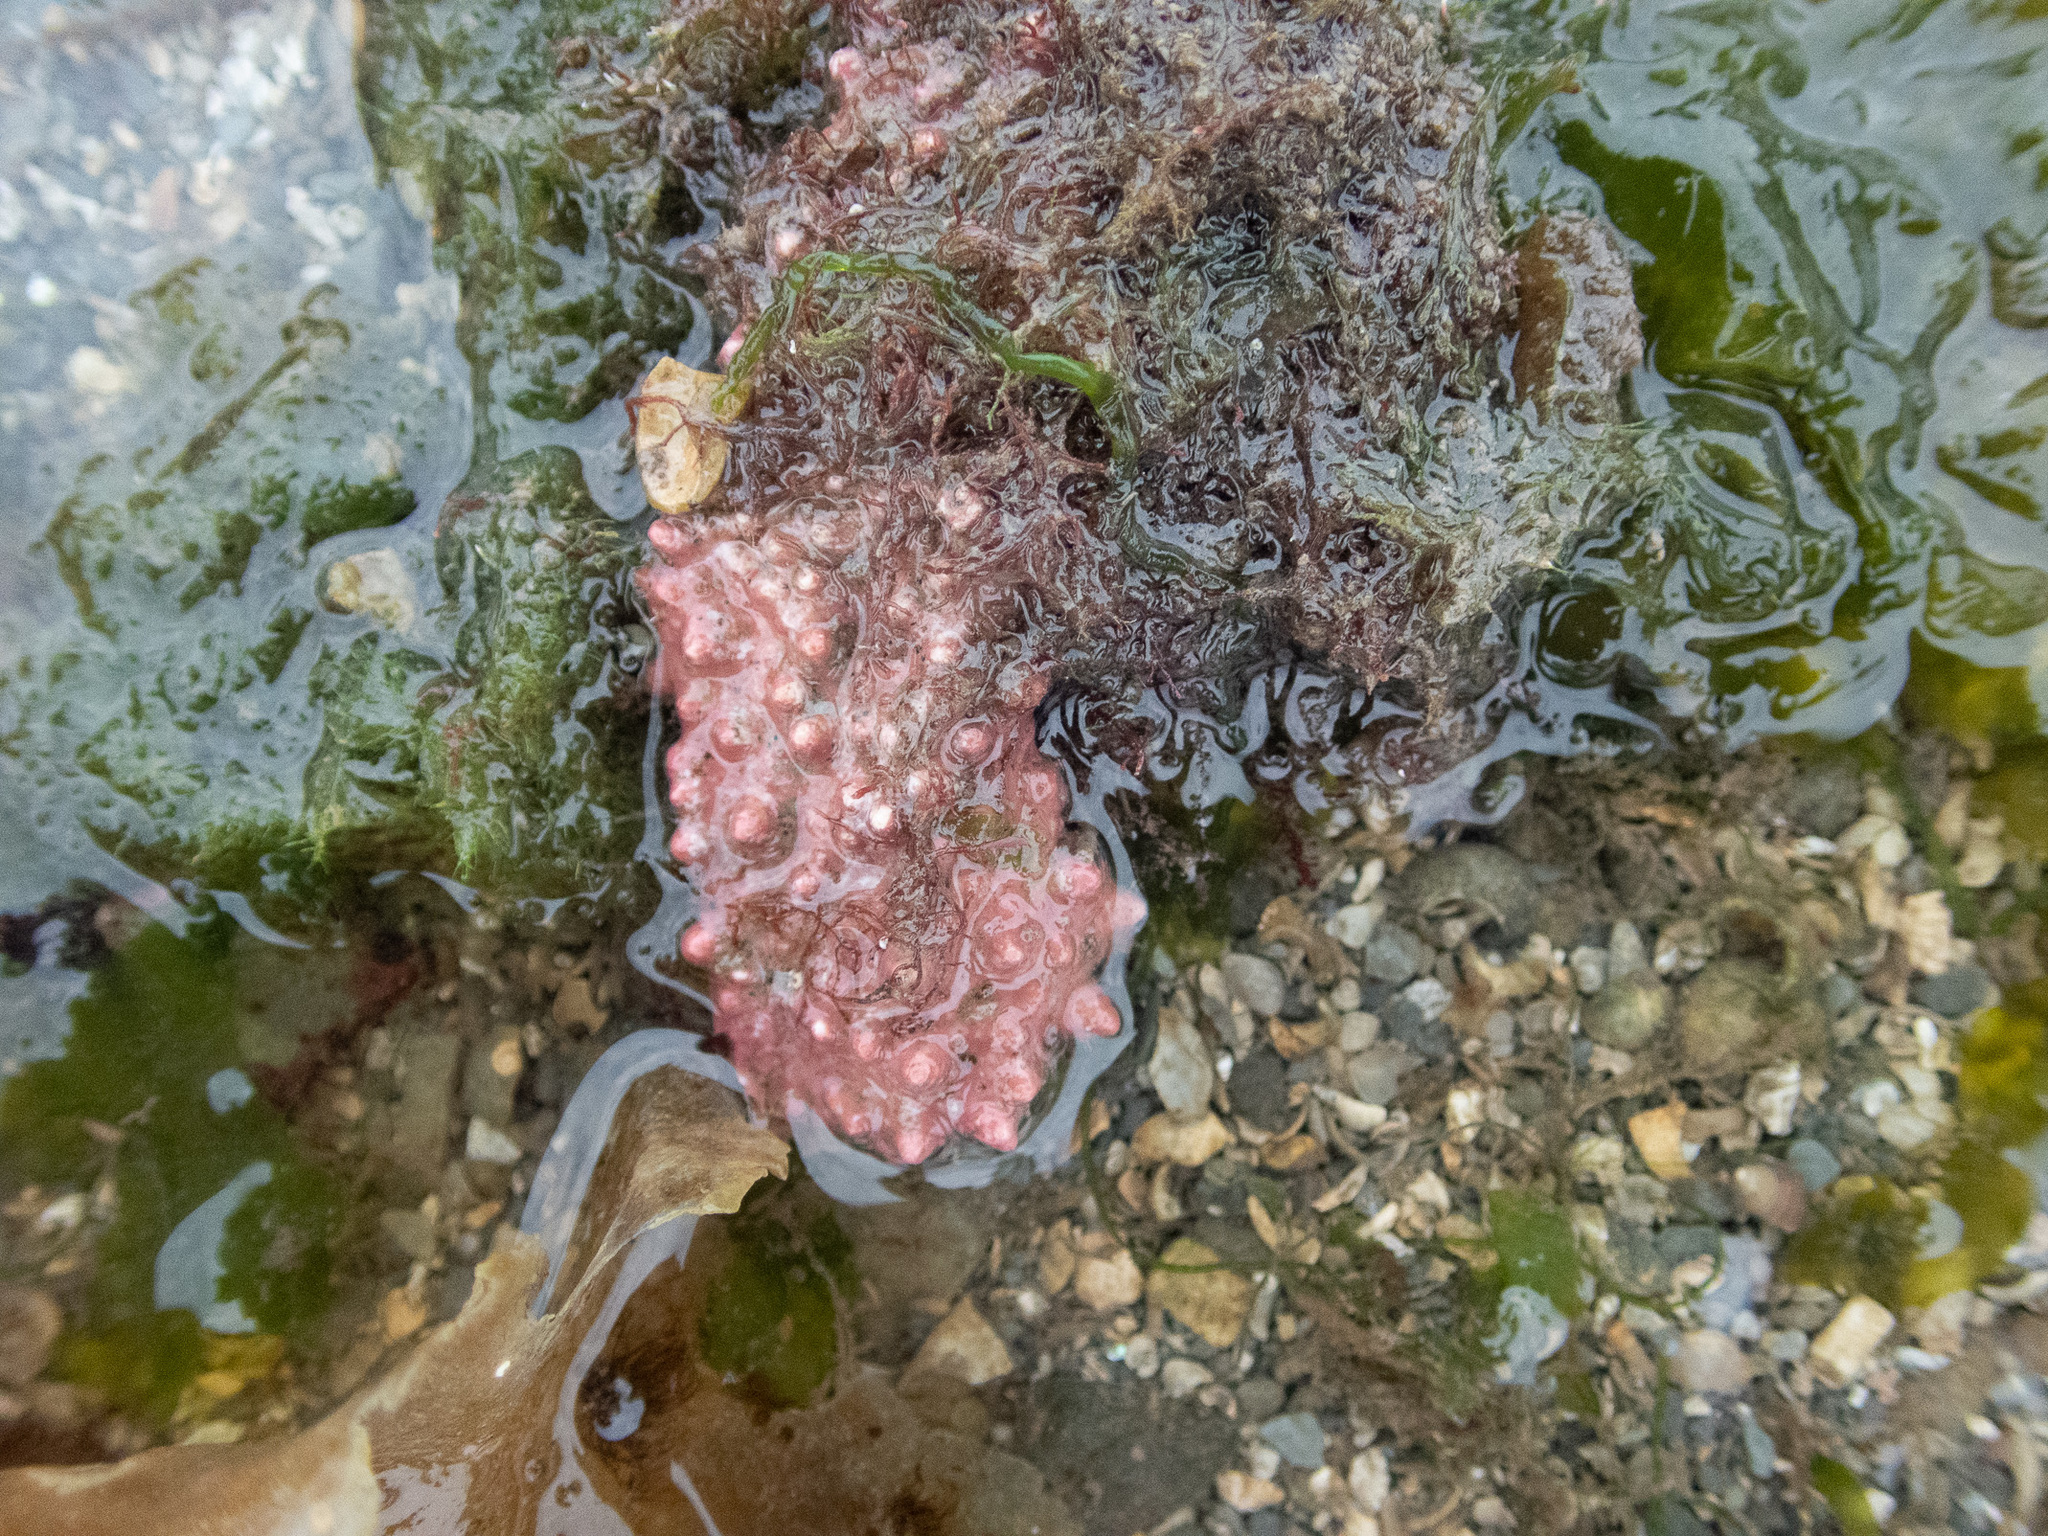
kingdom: Plantae
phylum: Rhodophyta
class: Florideophyceae
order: Corallinales
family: Hapalidiaceae
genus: Lithothamnion
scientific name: Lithothamnion glaciale
